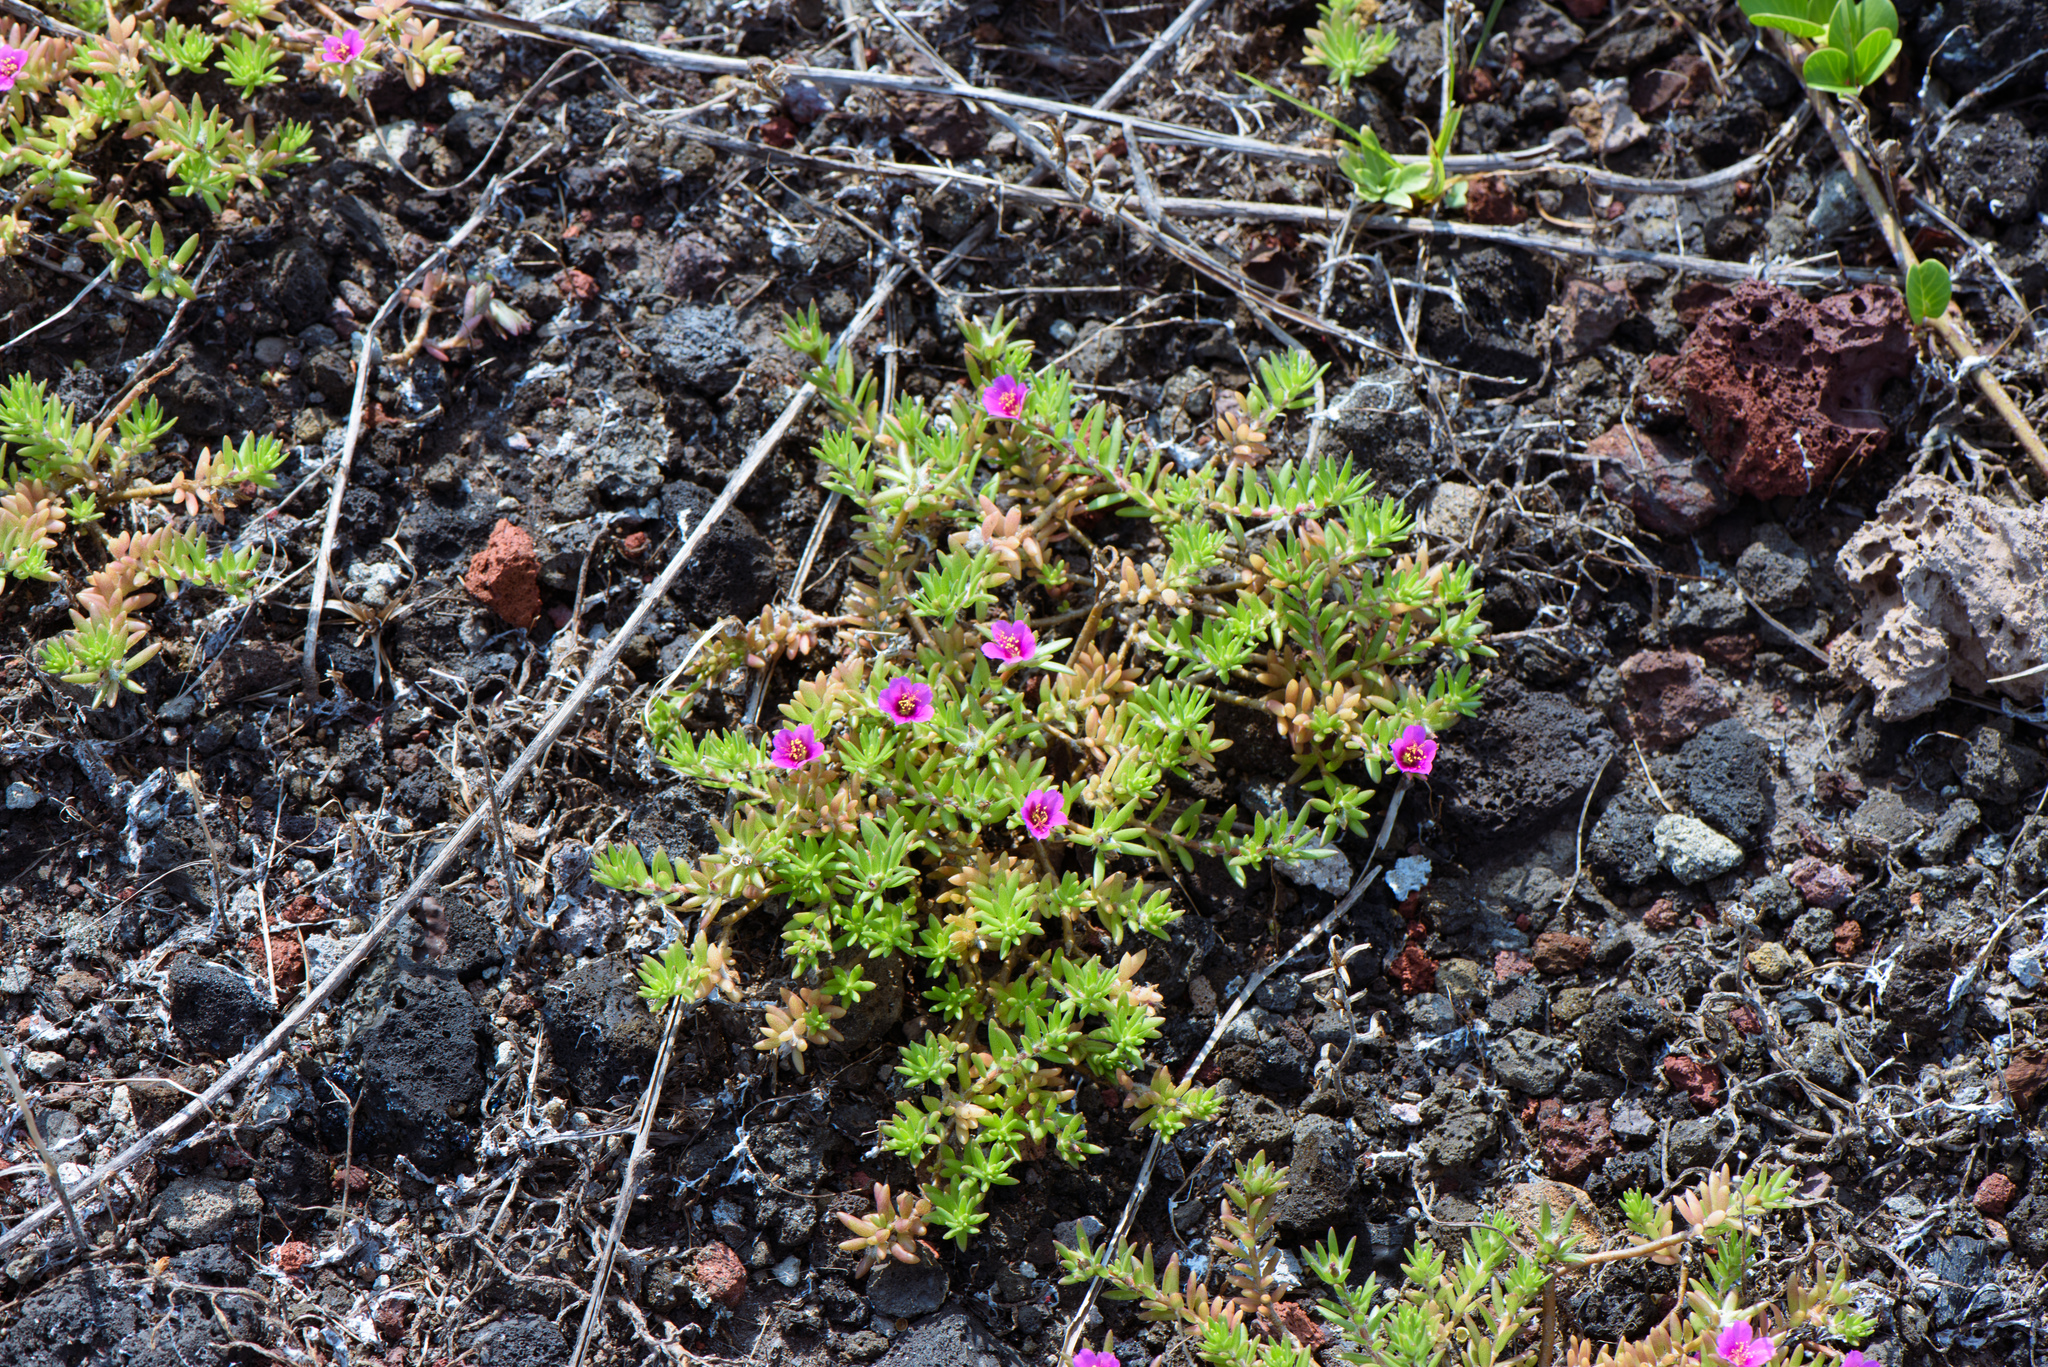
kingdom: Plantae
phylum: Tracheophyta
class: Magnoliopsida
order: Caryophyllales
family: Portulacaceae
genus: Portulaca
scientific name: Portulaca pilosa
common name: Kiss me quick
